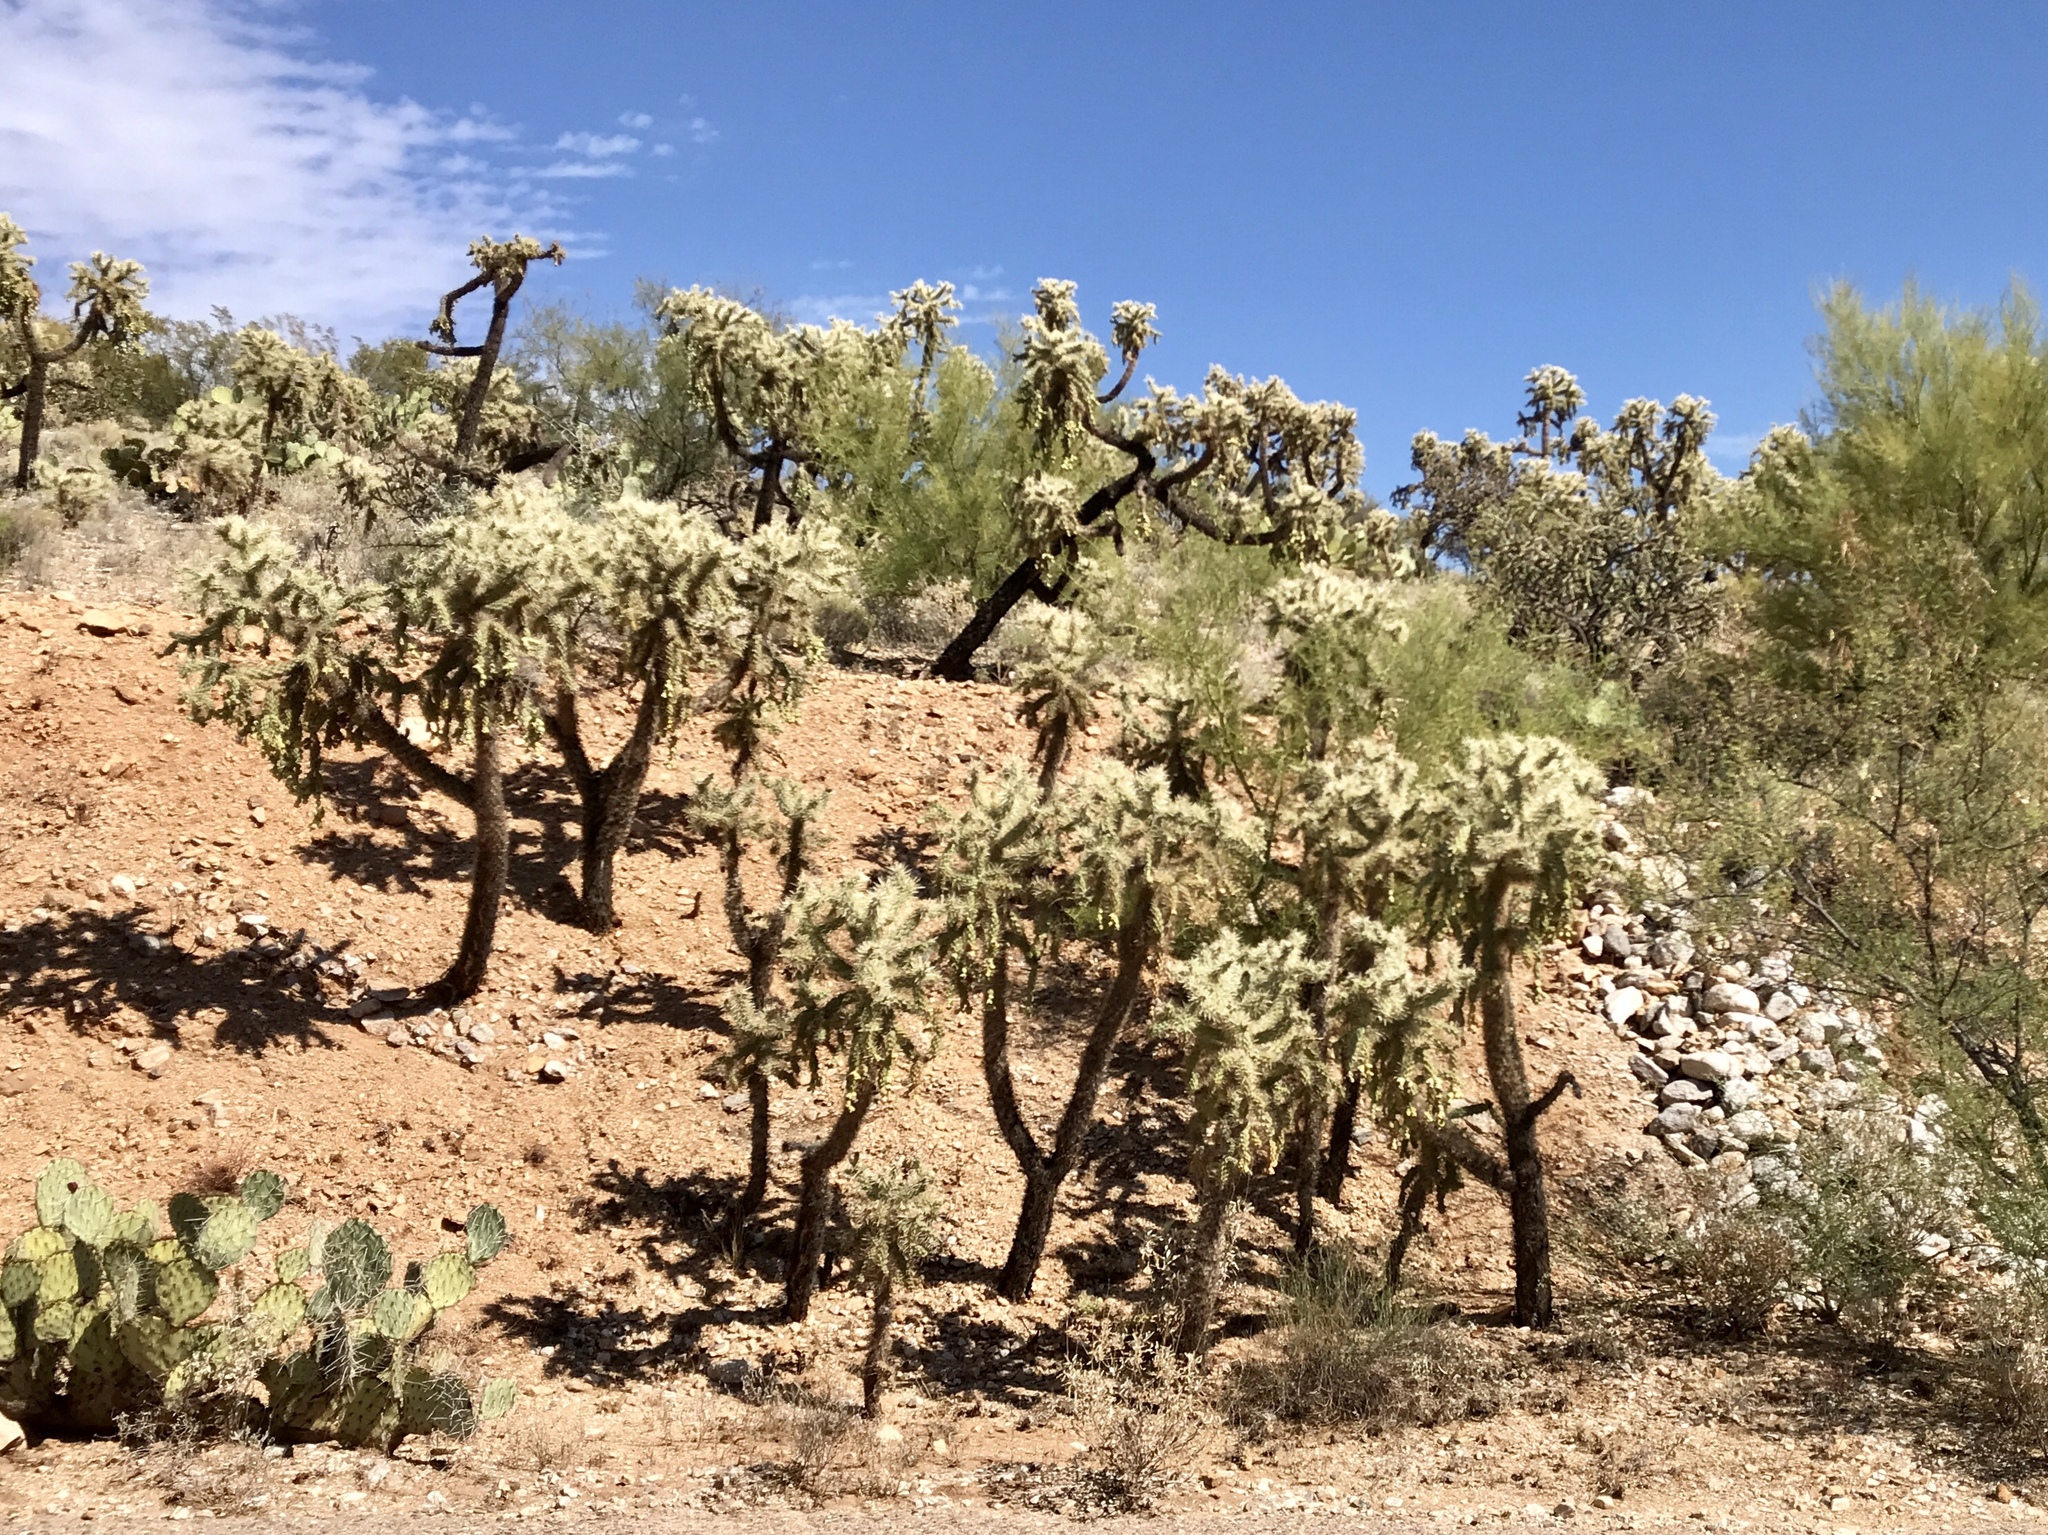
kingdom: Plantae
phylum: Tracheophyta
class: Magnoliopsida
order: Caryophyllales
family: Cactaceae
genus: Cylindropuntia
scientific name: Cylindropuntia fulgida
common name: Jumping cholla
